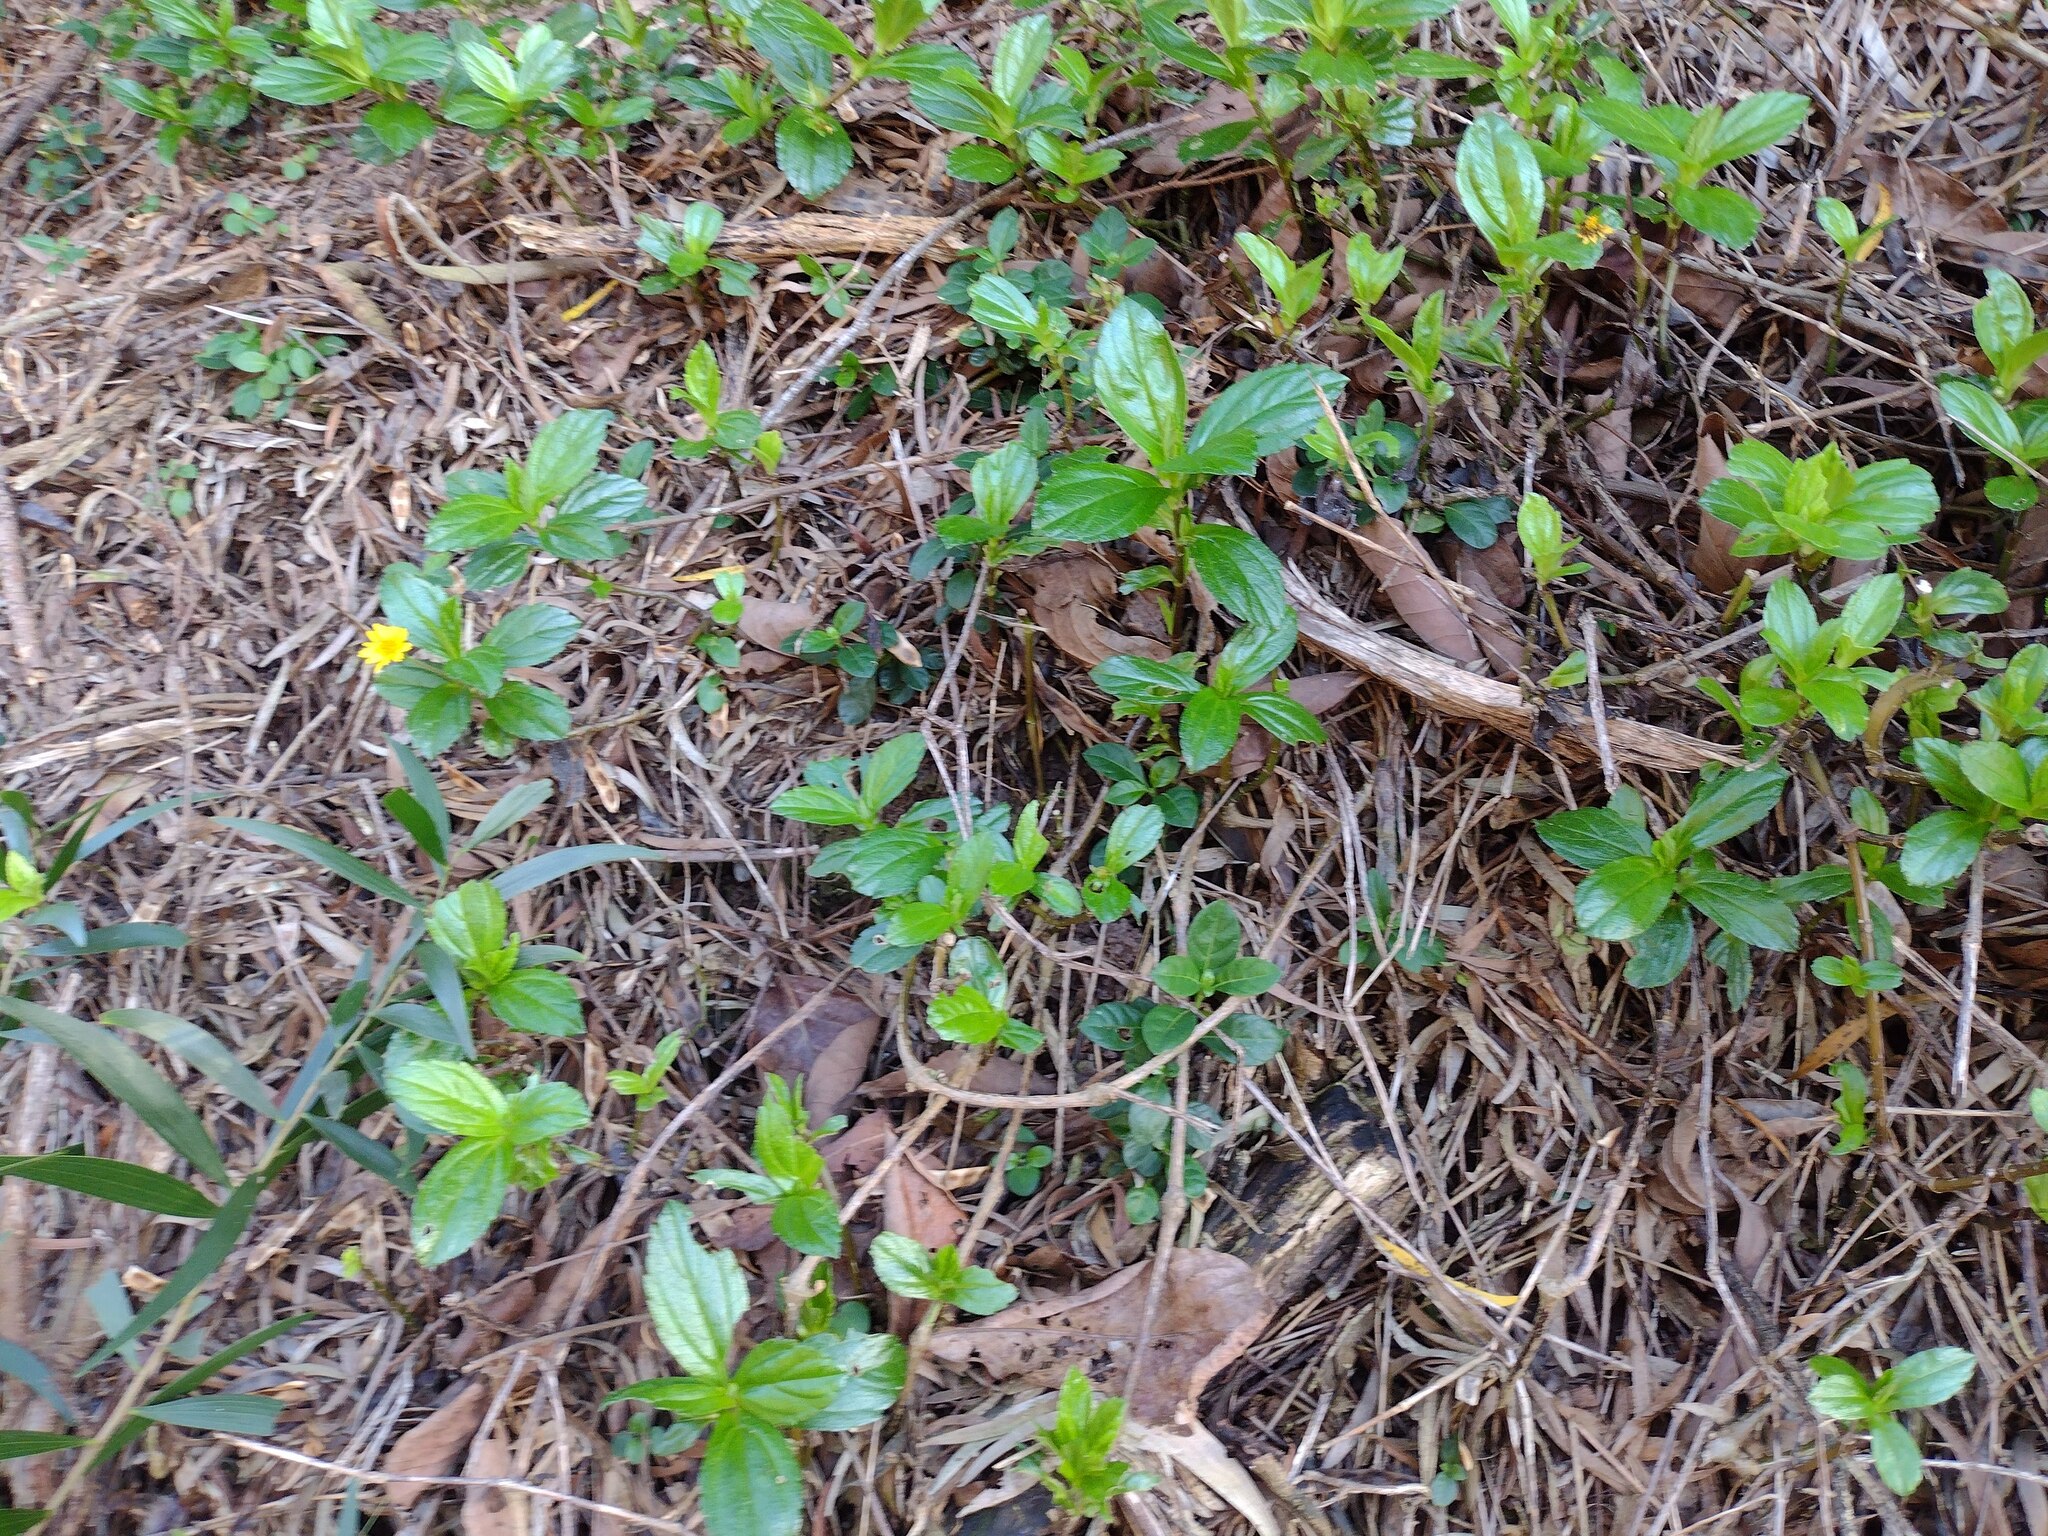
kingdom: Plantae
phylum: Tracheophyta
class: Magnoliopsida
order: Asterales
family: Asteraceae
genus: Sphagneticola
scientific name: Sphagneticola trilobata
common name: Bay biscayne creeping-oxeye
